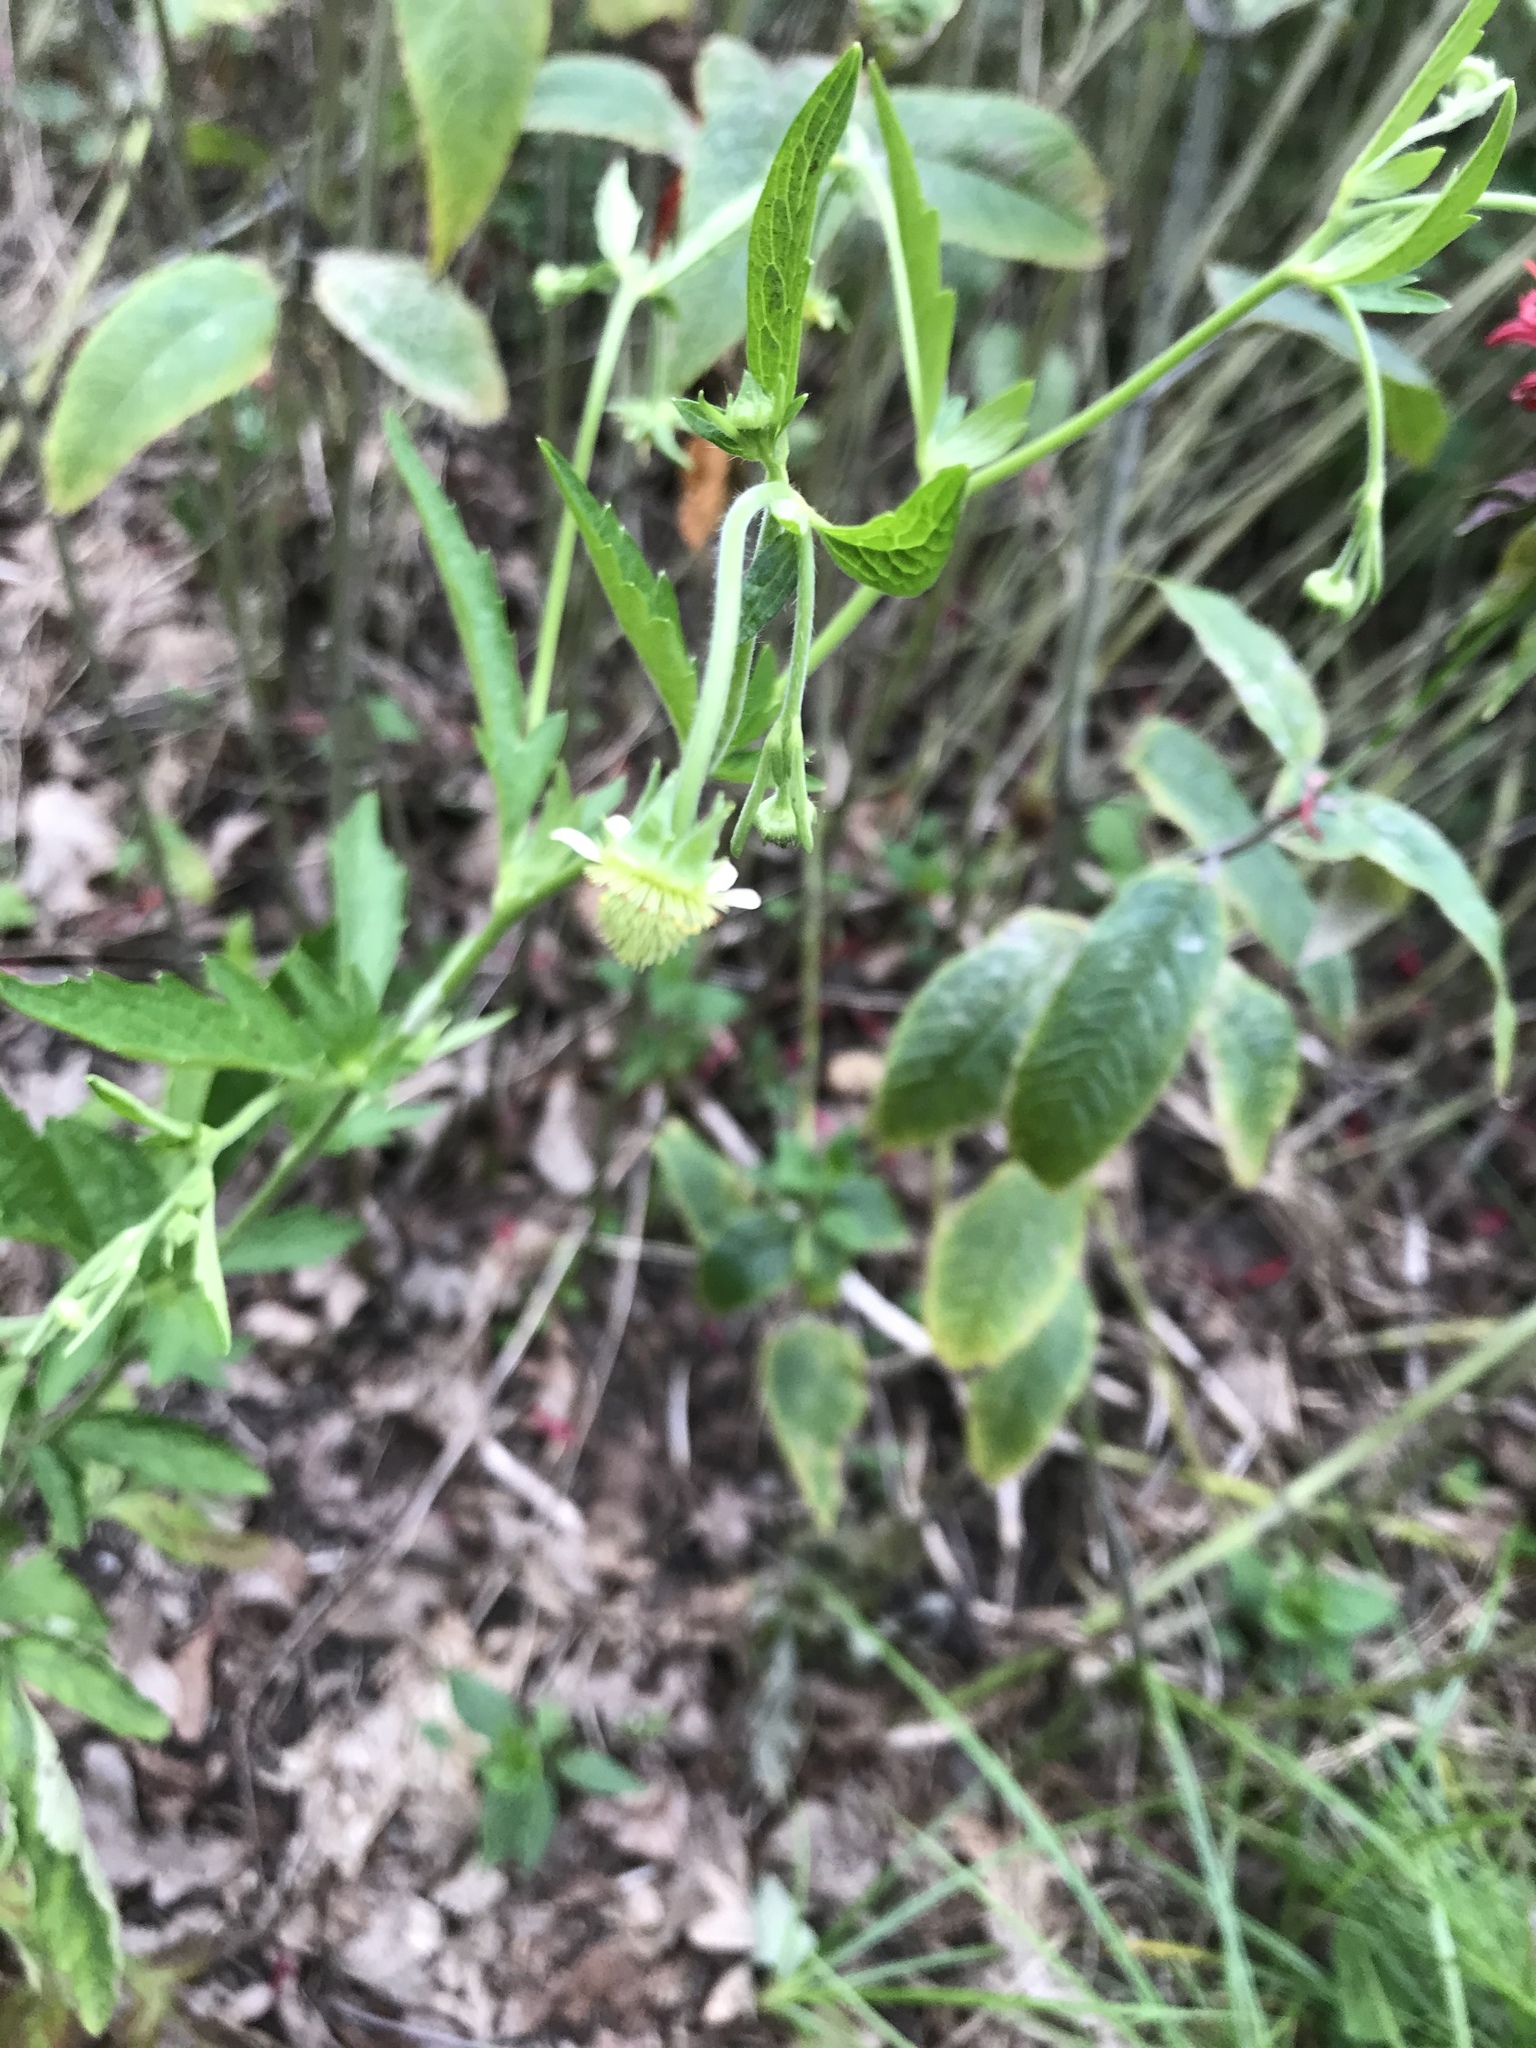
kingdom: Plantae
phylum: Tracheophyta
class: Magnoliopsida
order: Rosales
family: Rosaceae
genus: Geum
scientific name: Geum virginianum
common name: Cream avens
